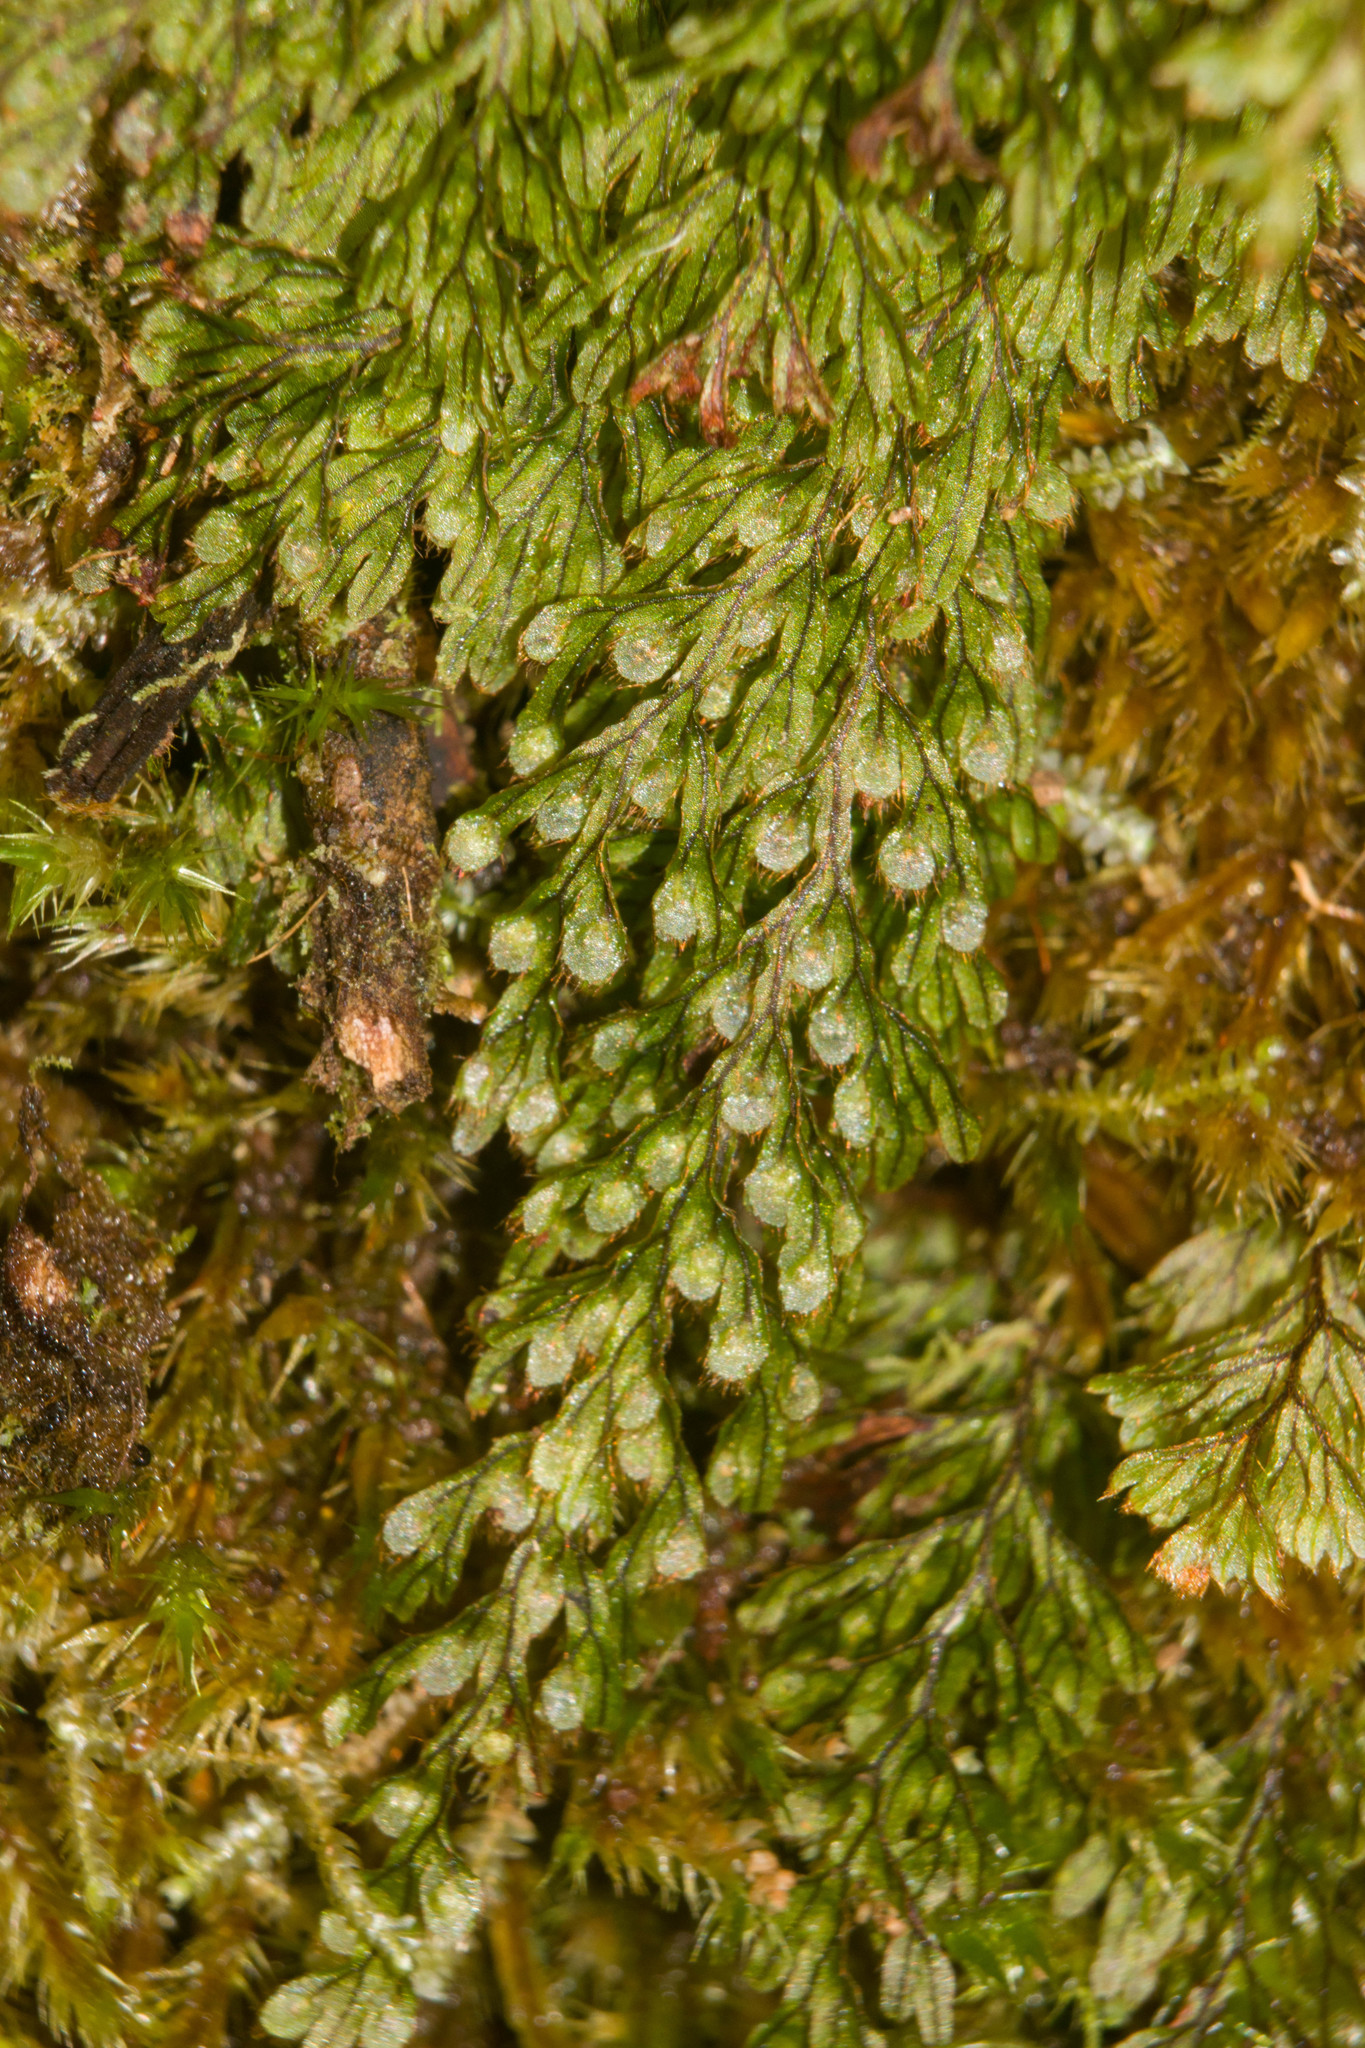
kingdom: Plantae
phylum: Tracheophyta
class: Polypodiopsida
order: Hymenophyllales
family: Hymenophyllaceae
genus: Hymenophyllum
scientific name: Hymenophyllum lanceolatum
